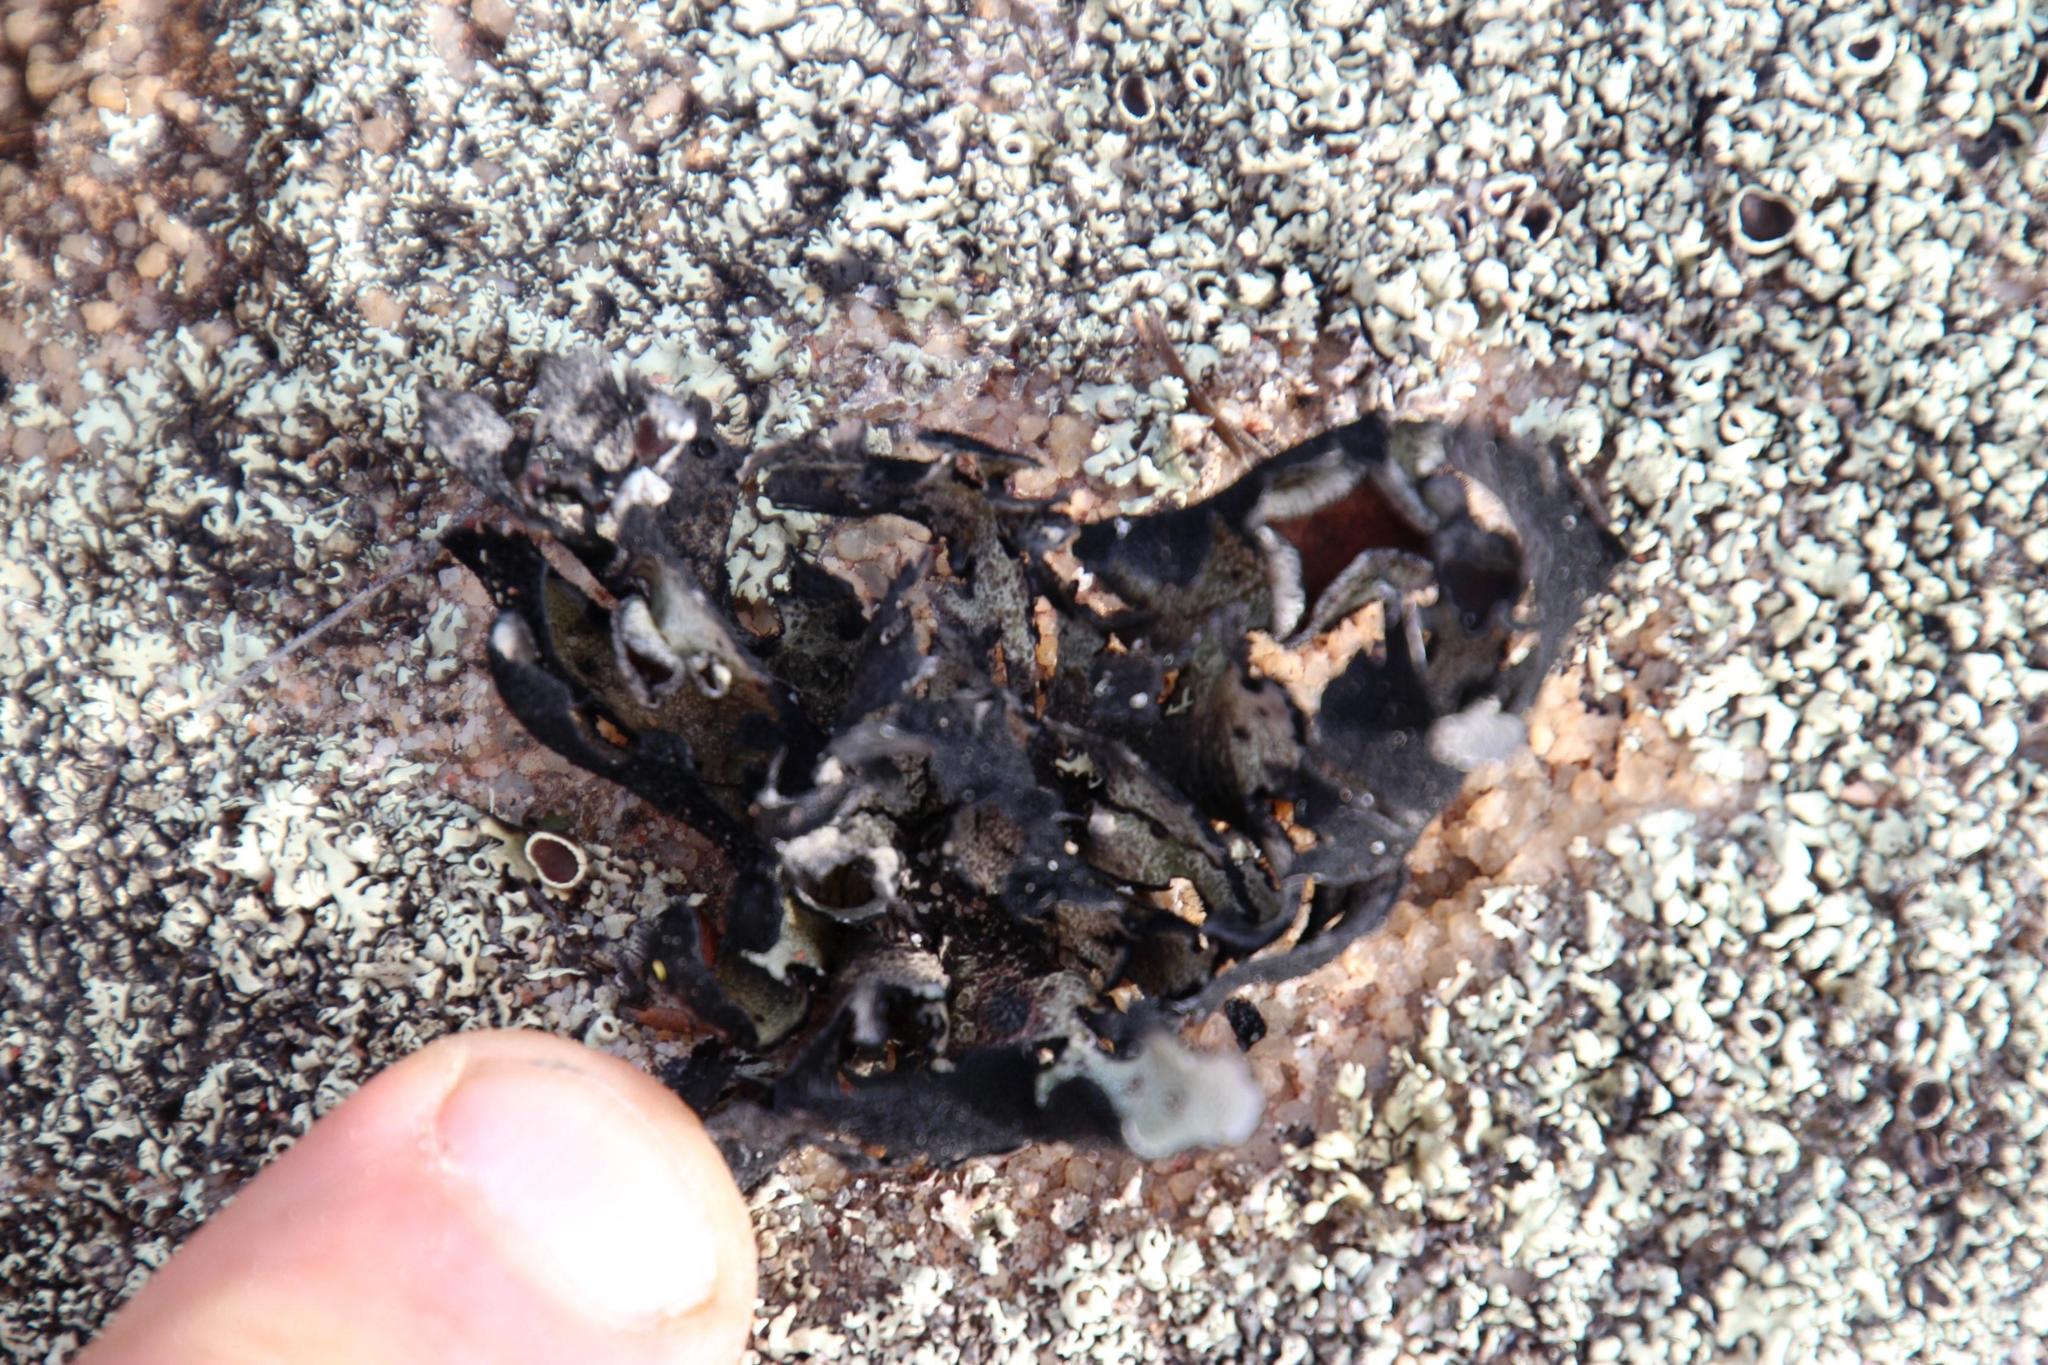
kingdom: Fungi
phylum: Ascomycota
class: Lecanoromycetes
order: Lecanorales
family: Parmeliaceae
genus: Xanthoparmelia
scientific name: Xanthoparmelia hottentotta
